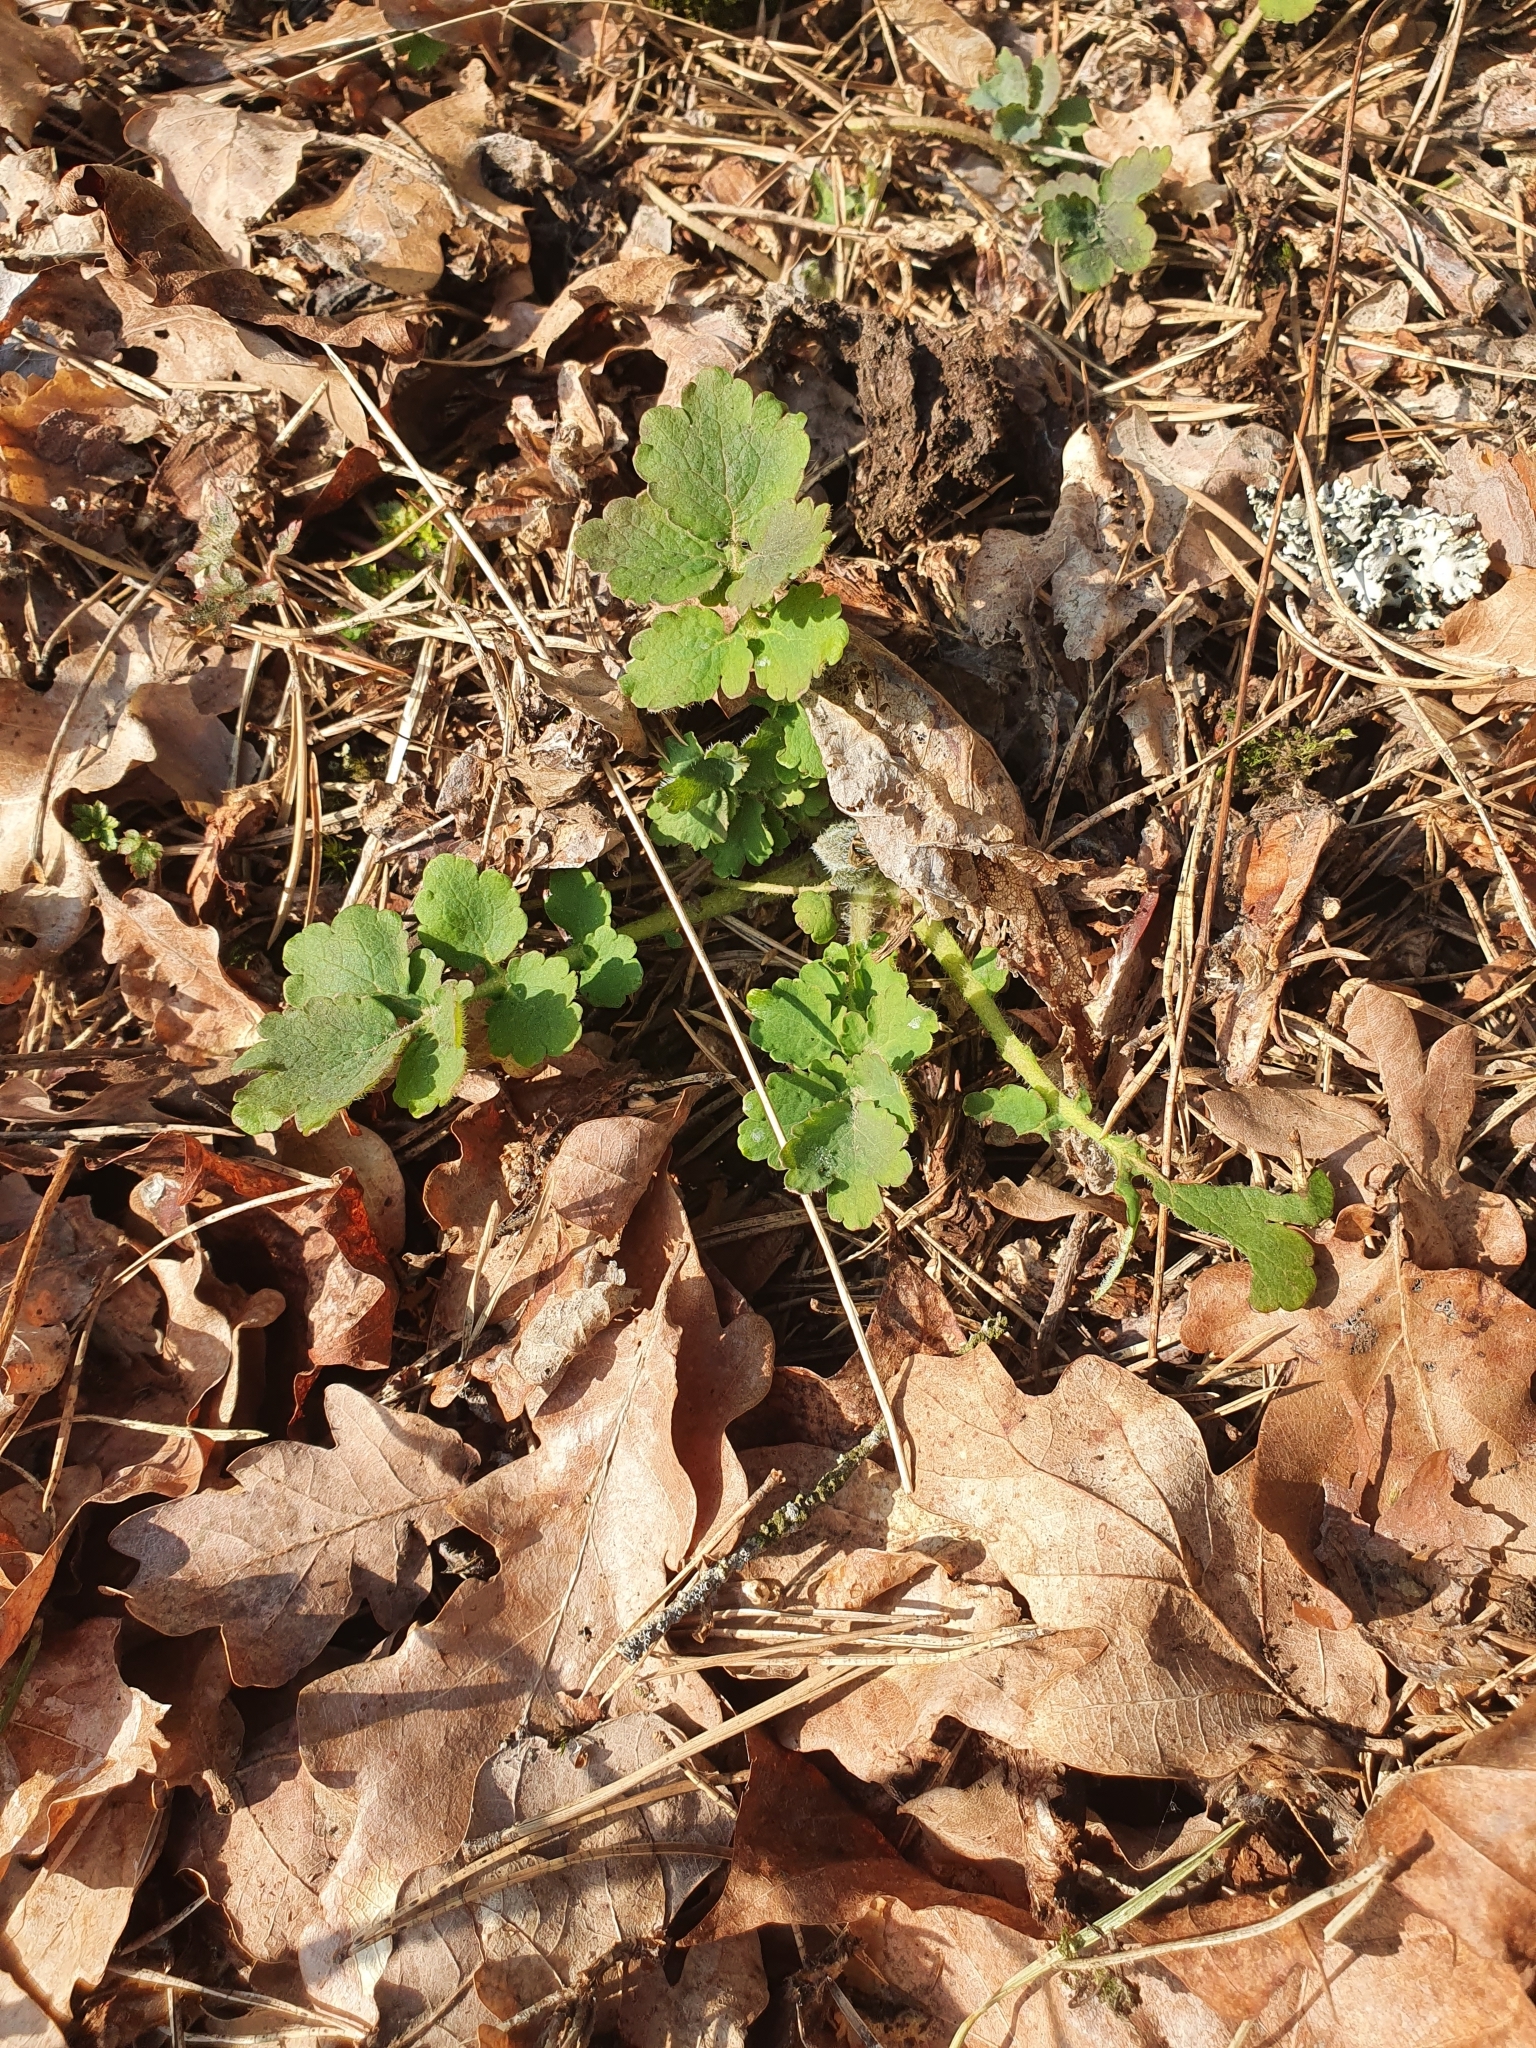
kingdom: Plantae
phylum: Tracheophyta
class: Magnoliopsida
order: Ranunculales
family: Papaveraceae
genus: Chelidonium
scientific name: Chelidonium majus
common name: Greater celandine
